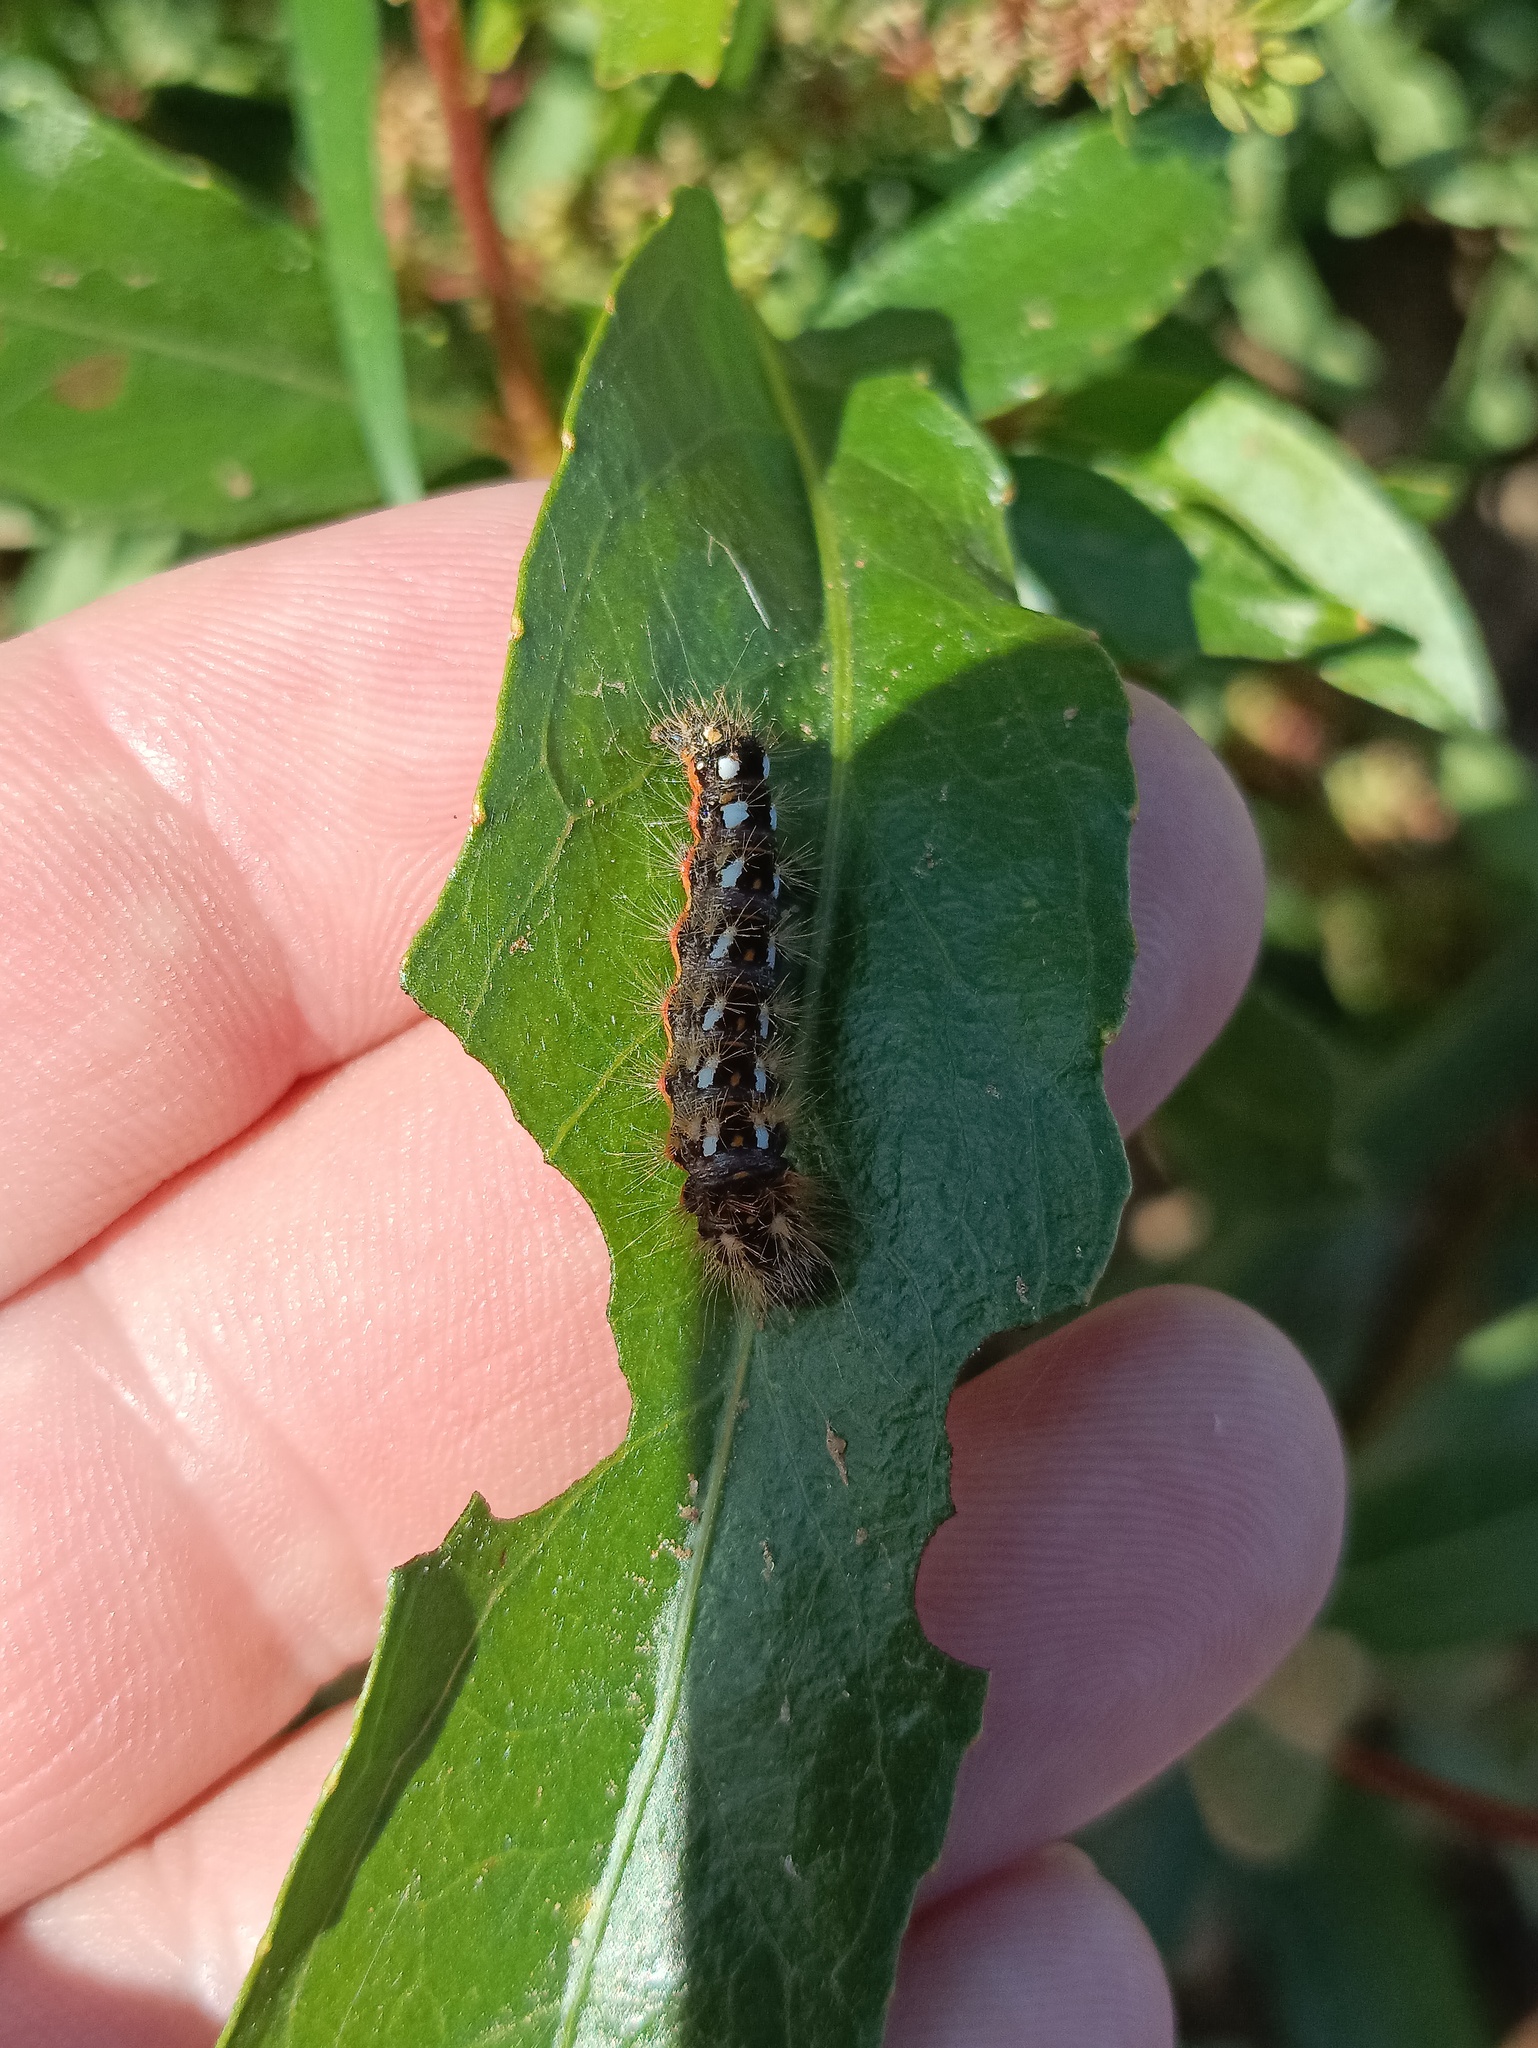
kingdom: Animalia
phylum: Arthropoda
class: Insecta
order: Lepidoptera
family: Noctuidae
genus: Acronicta
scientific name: Acronicta rumicis
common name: Knot grass
